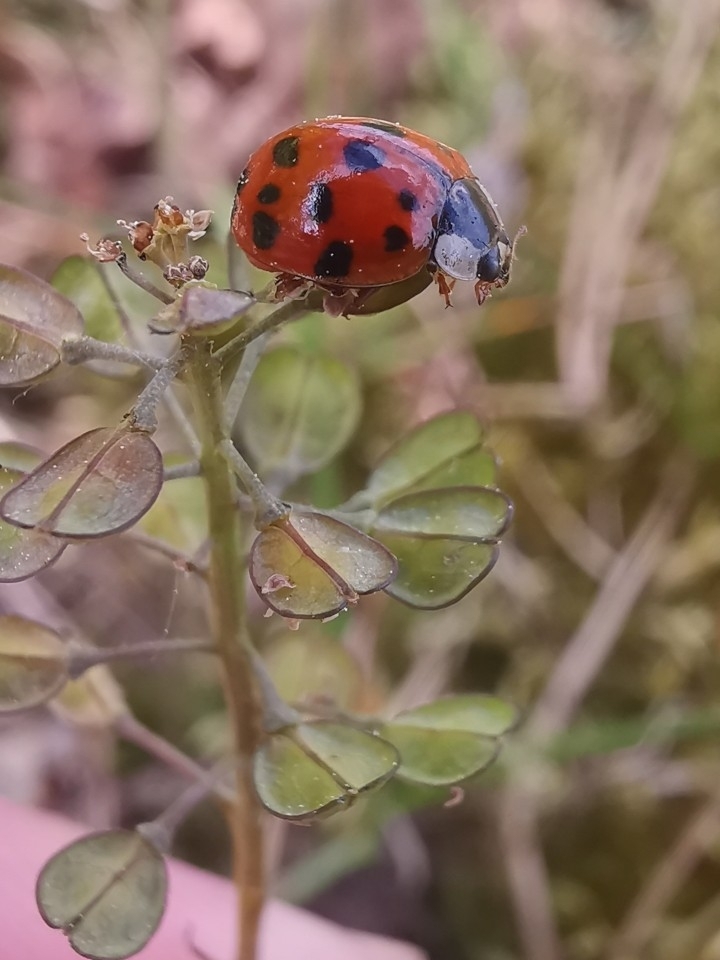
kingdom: Animalia
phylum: Arthropoda
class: Insecta
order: Coleoptera
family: Coccinellidae
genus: Harmonia
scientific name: Harmonia axyridis
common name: Harlequin ladybird
